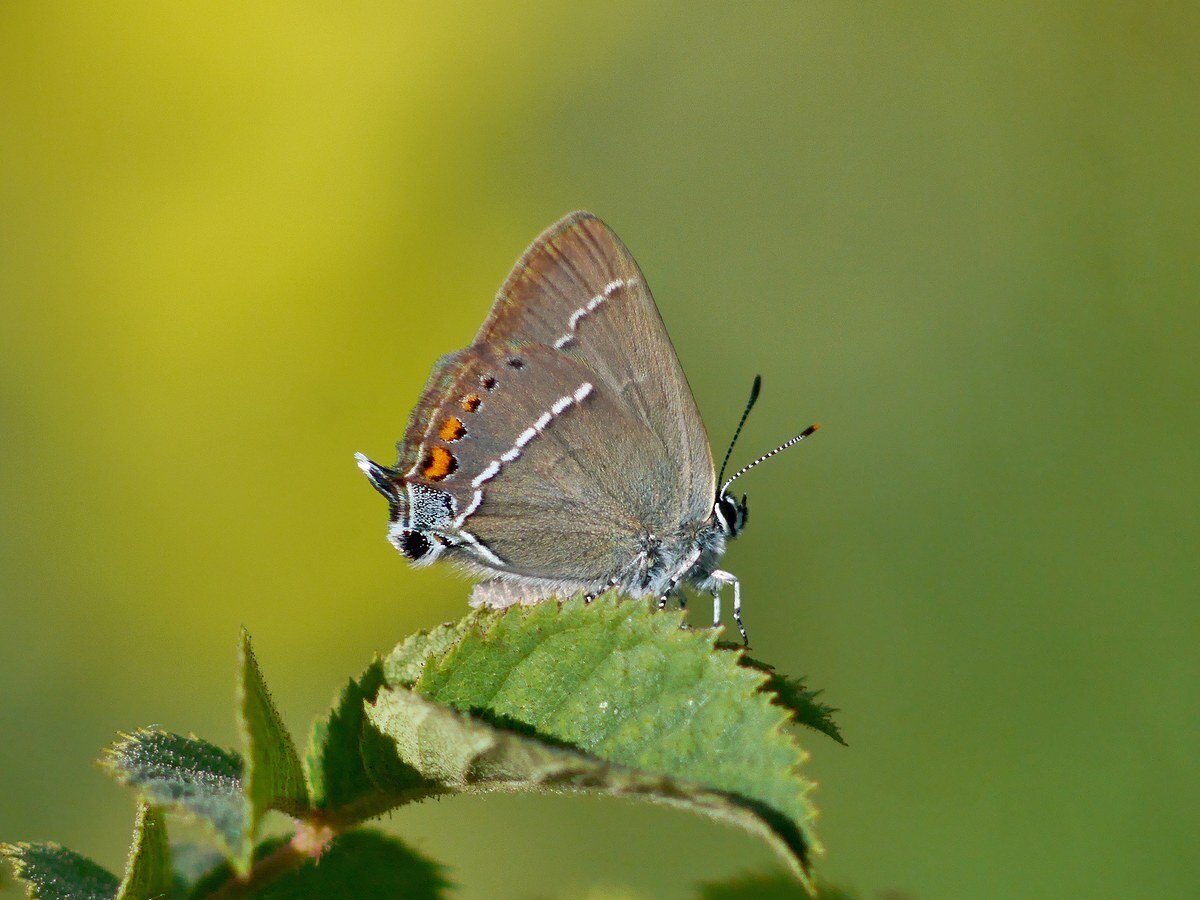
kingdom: Animalia
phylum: Arthropoda
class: Insecta
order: Lepidoptera
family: Lycaenidae
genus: Tuttiola
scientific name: Tuttiola spini
